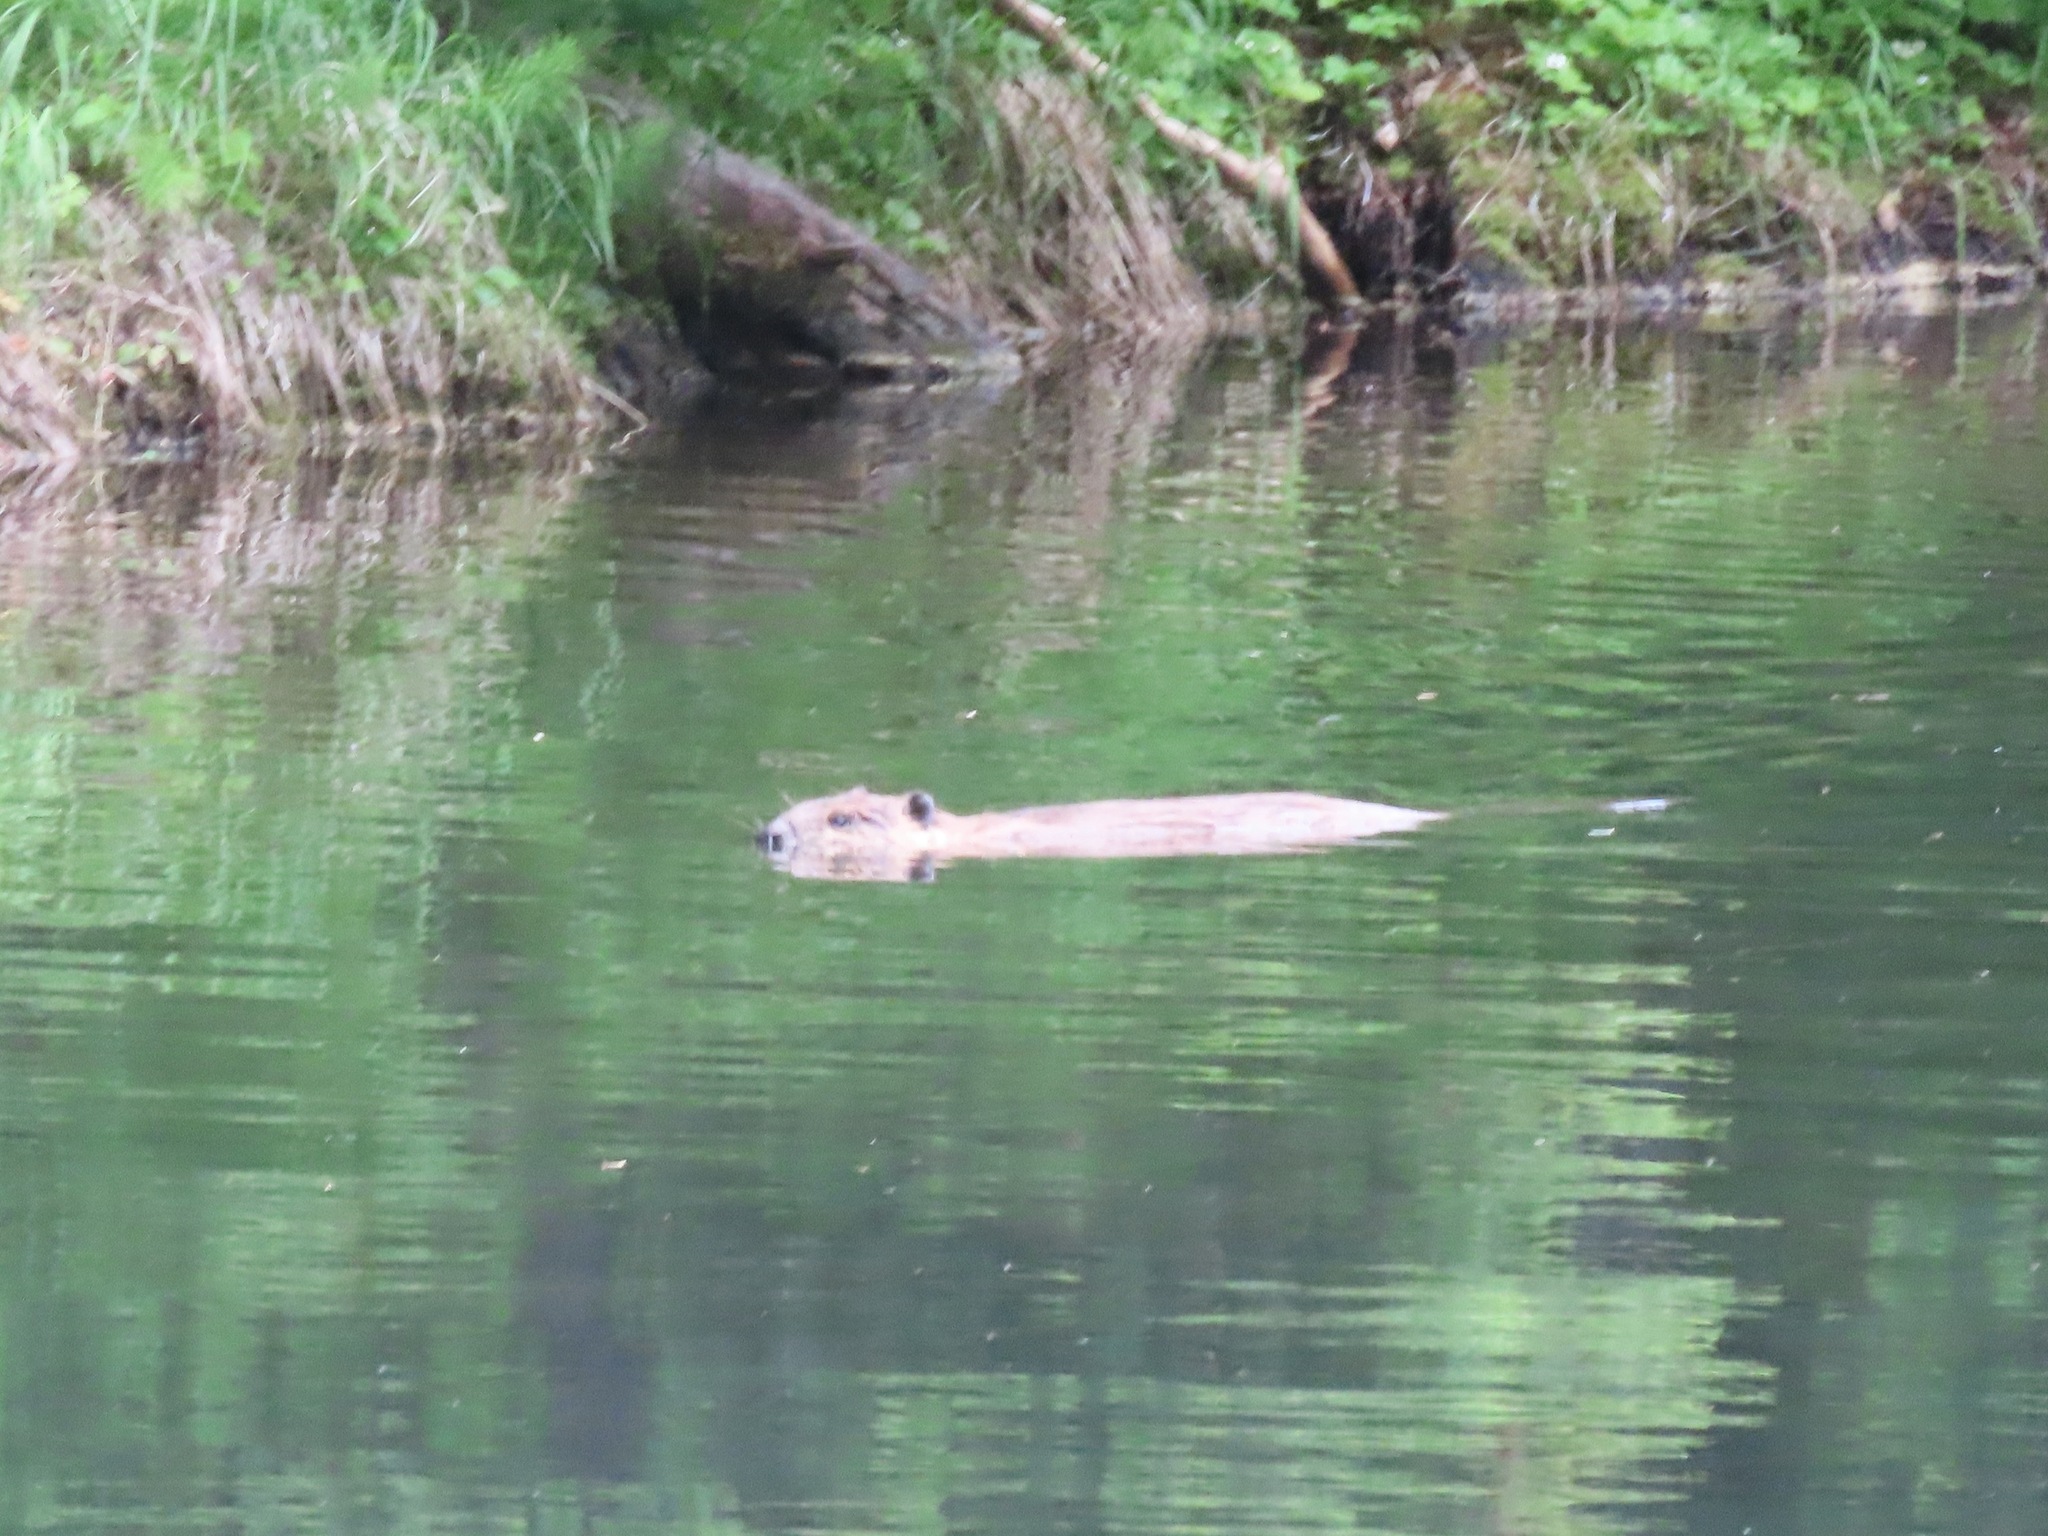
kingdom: Animalia
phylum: Chordata
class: Mammalia
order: Rodentia
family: Castoridae
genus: Castor
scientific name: Castor canadensis
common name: American beaver
